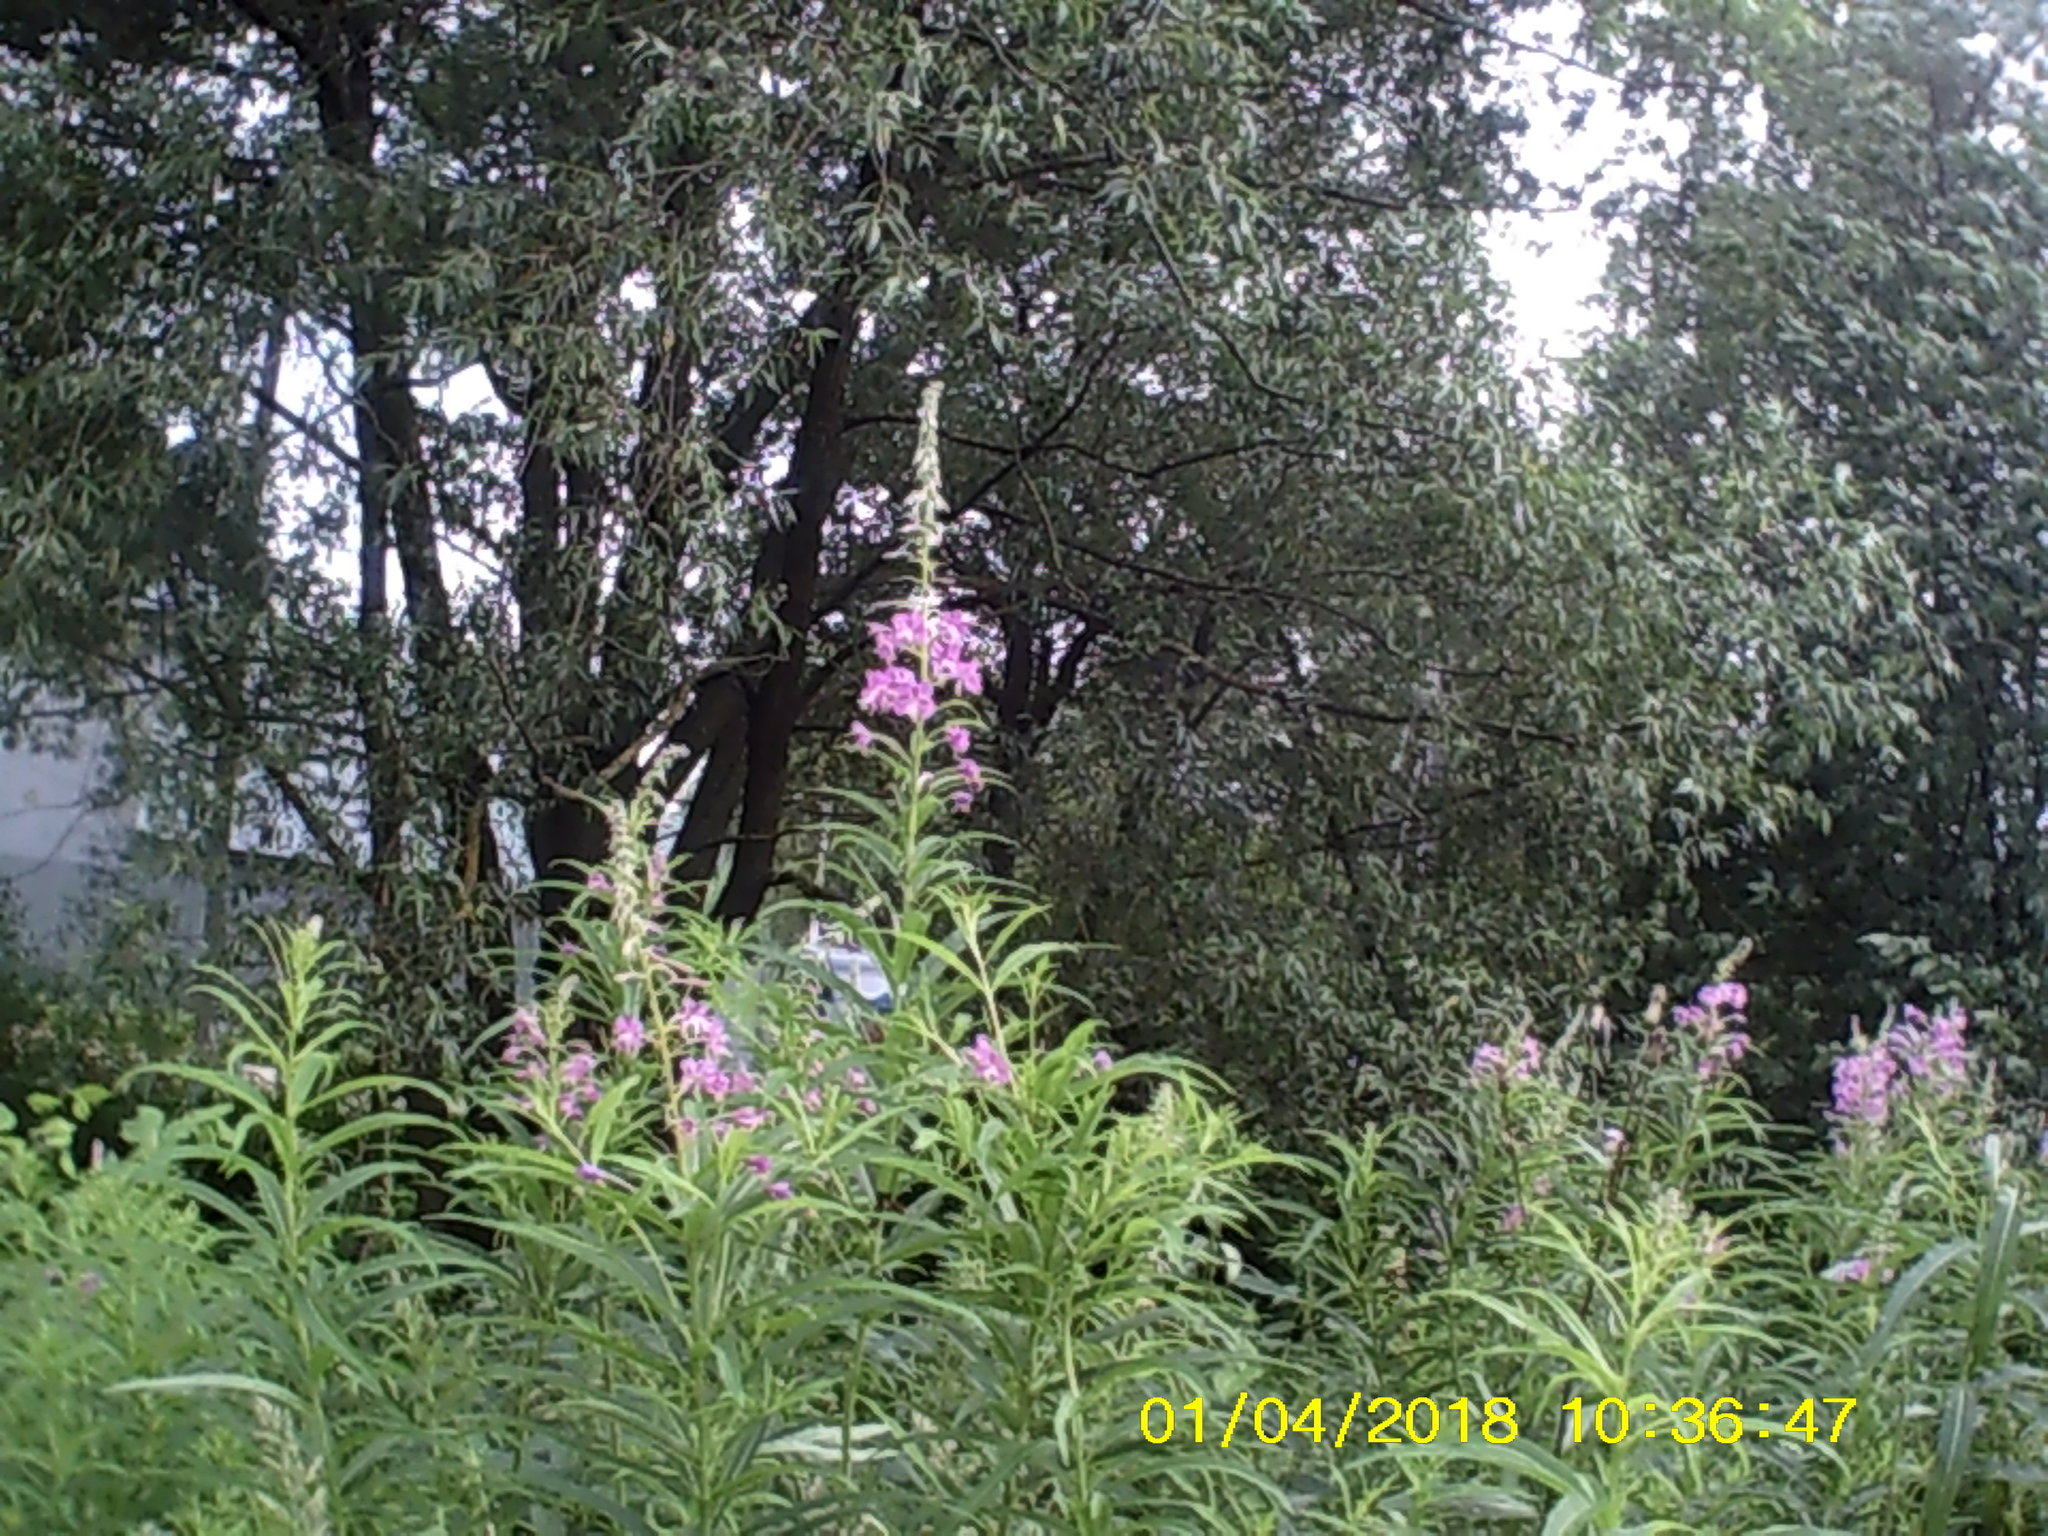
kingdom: Plantae
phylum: Tracheophyta
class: Magnoliopsida
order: Myrtales
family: Onagraceae
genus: Chamaenerion
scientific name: Chamaenerion angustifolium
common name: Fireweed
